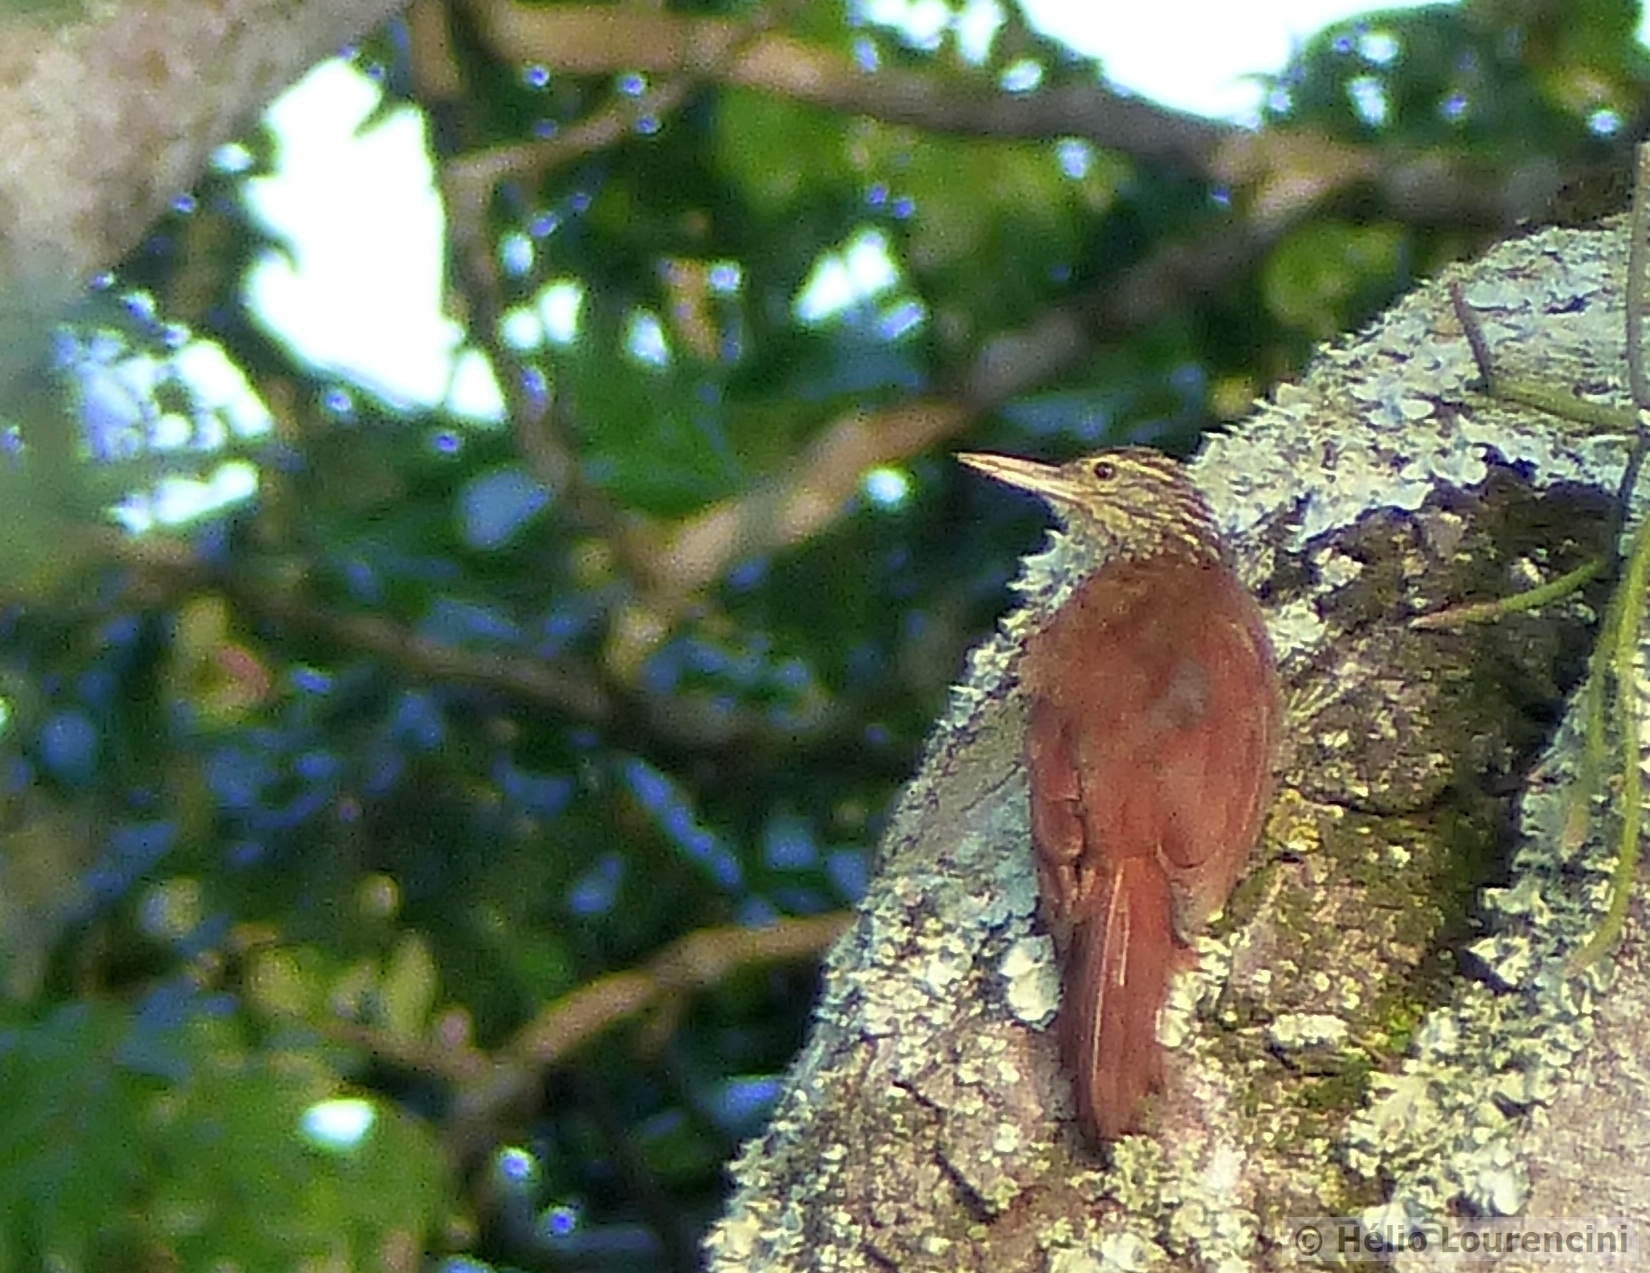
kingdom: Animalia
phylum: Chordata
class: Aves
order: Passeriformes
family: Furnariidae
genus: Xiphorhynchus
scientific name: Xiphorhynchus picus
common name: Straight-billed woodcreeper
